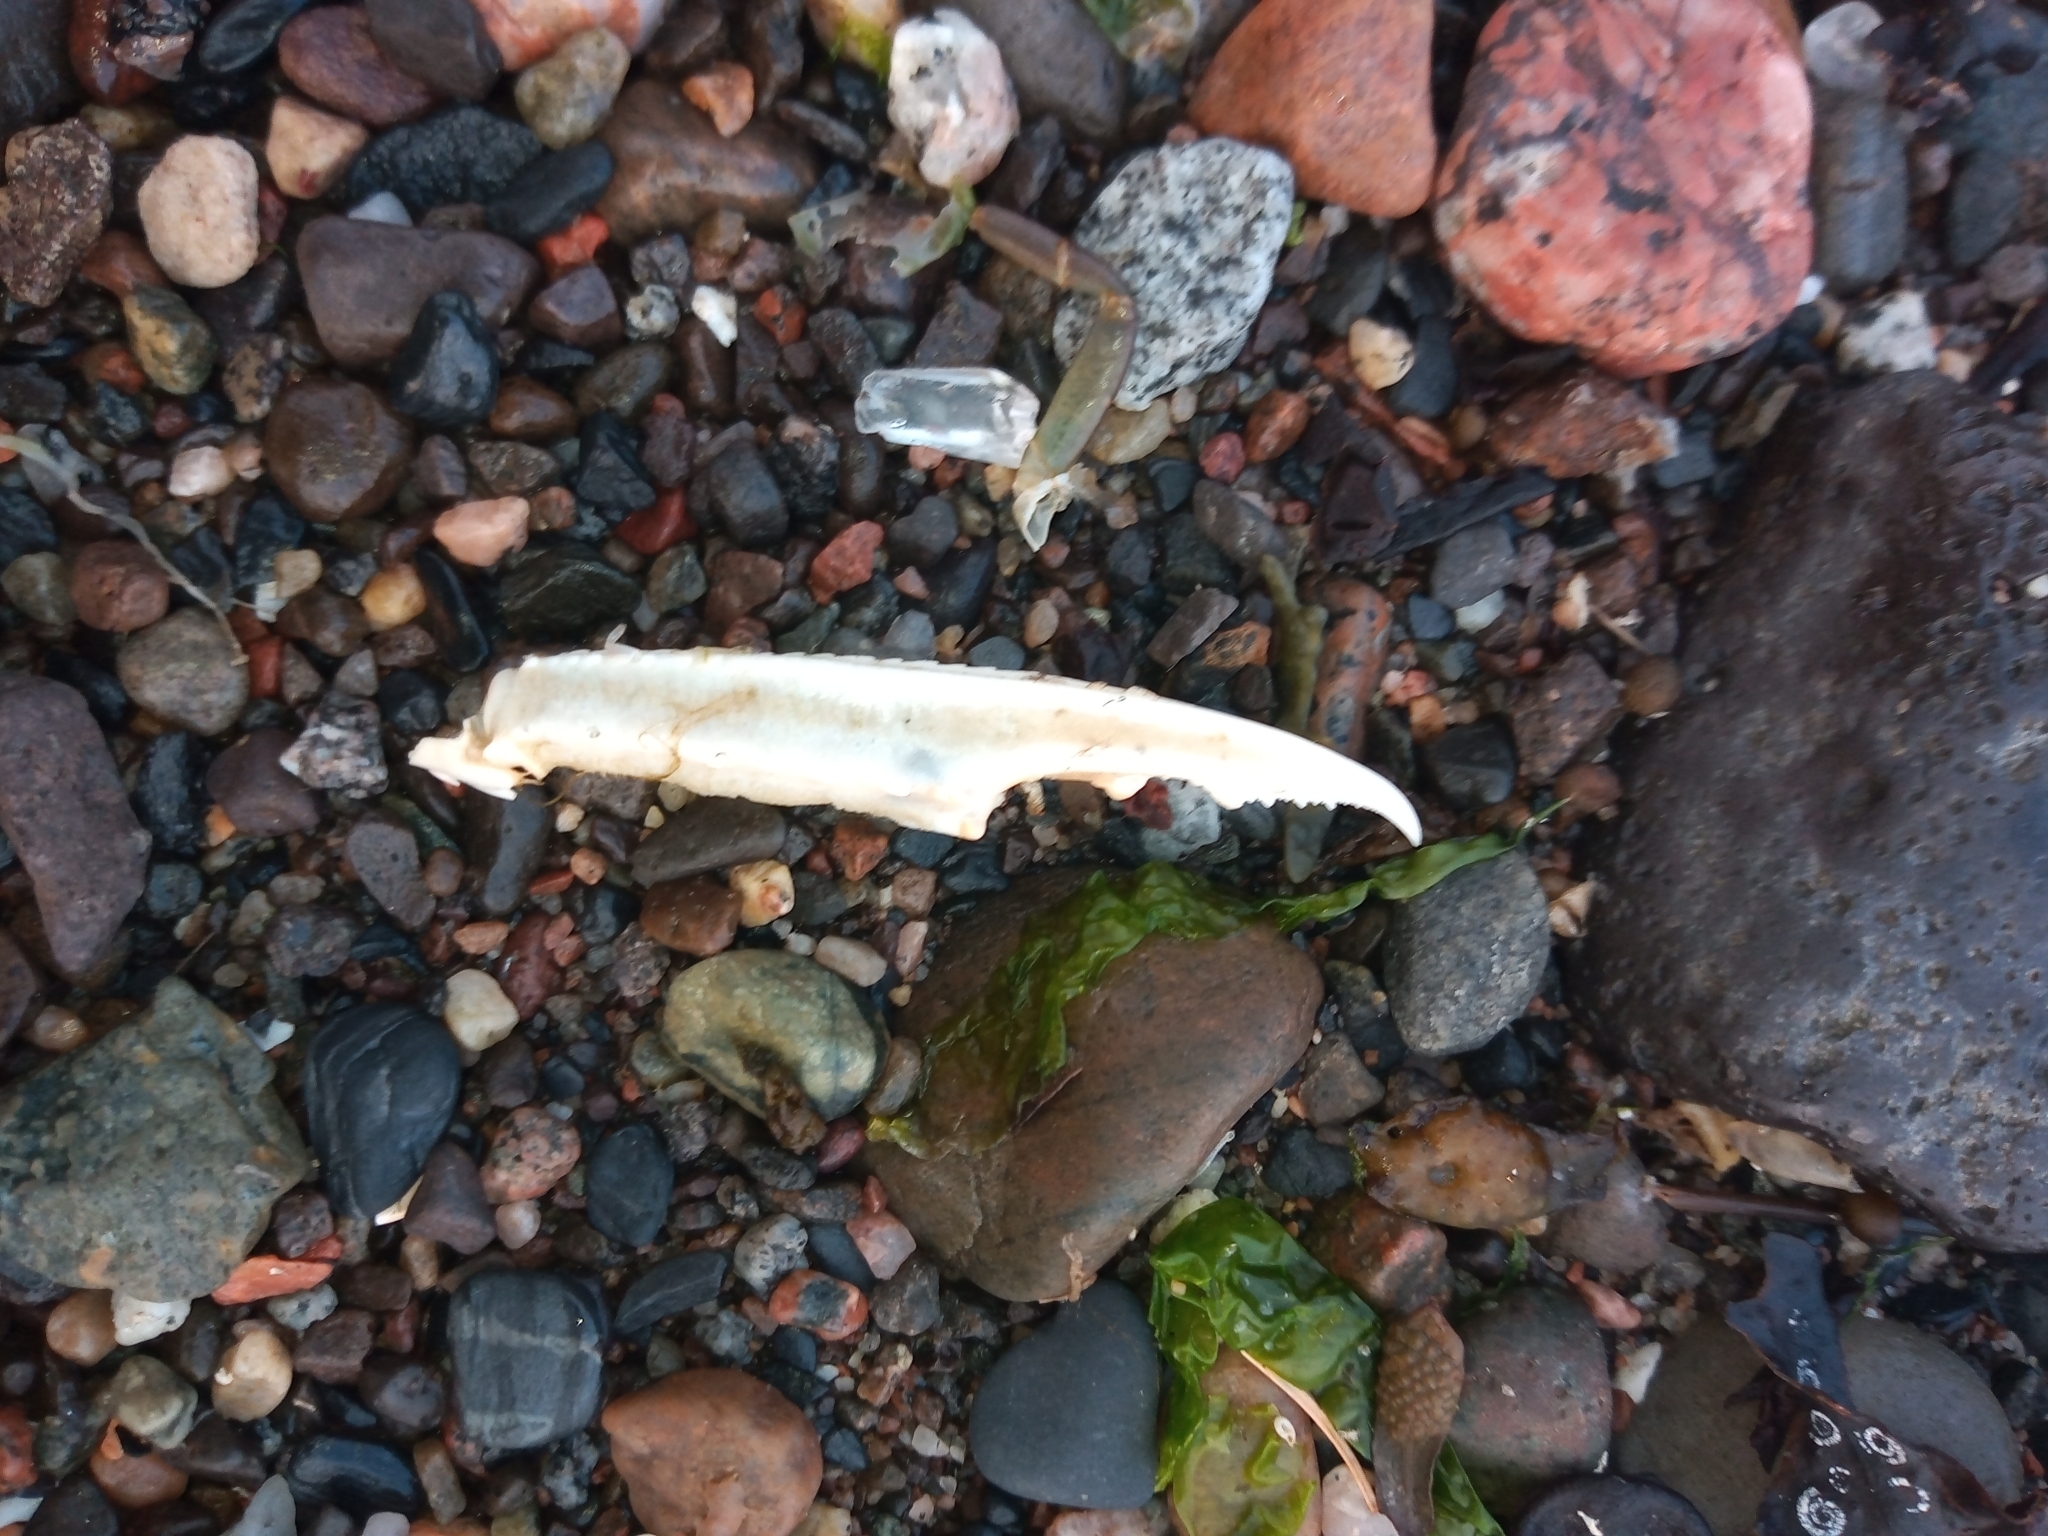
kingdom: Animalia
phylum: Arthropoda
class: Malacostraca
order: Decapoda
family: Nephropidae
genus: Nephrops
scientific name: Nephrops norvegicus
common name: Norway lobster
